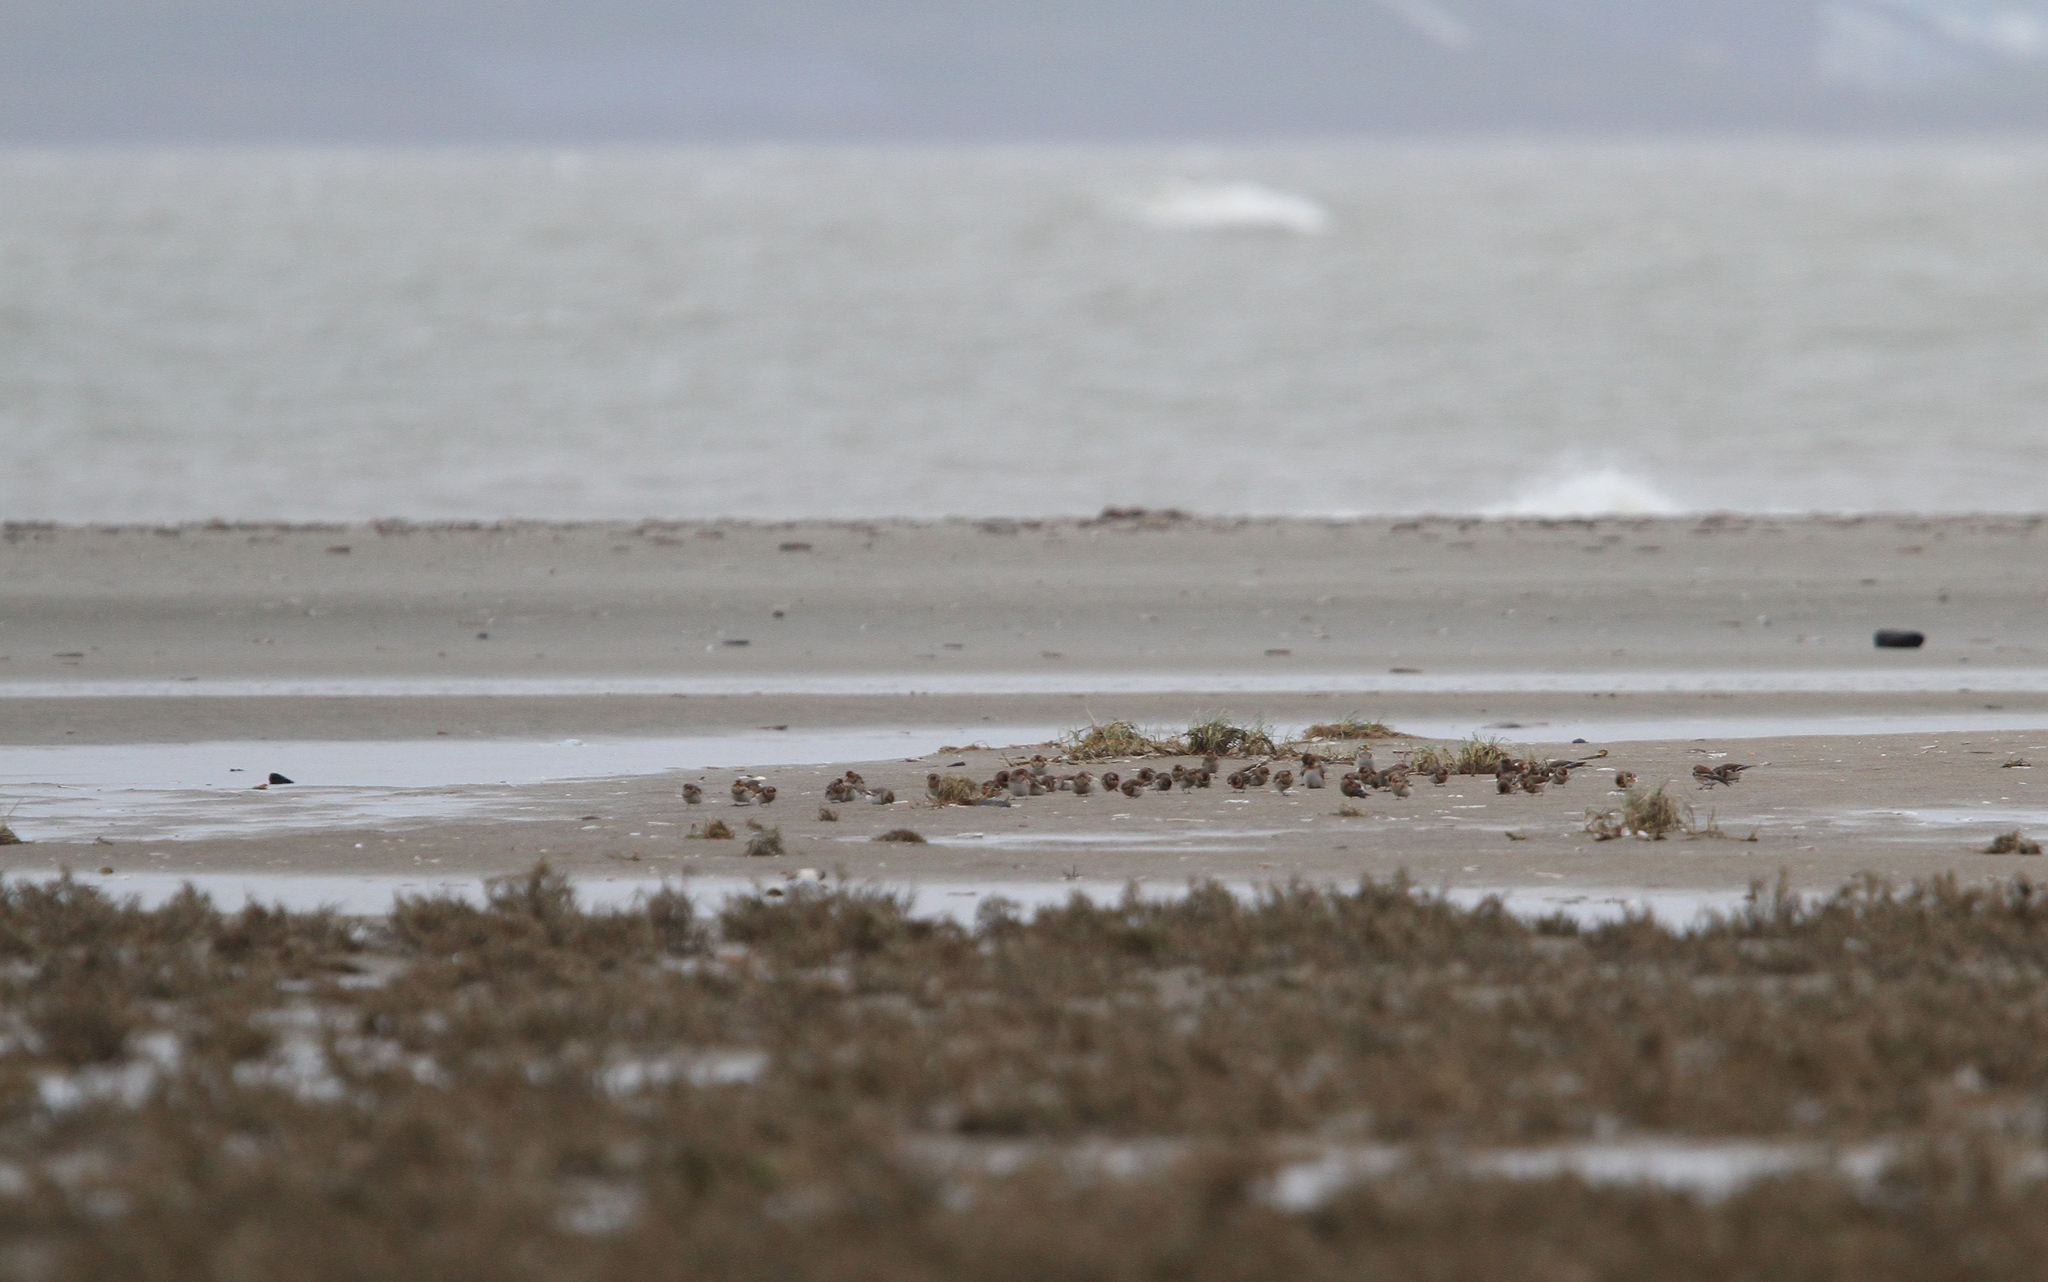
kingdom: Animalia
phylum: Chordata
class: Aves
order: Passeriformes
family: Calcariidae
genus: Plectrophenax
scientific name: Plectrophenax nivalis
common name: Snow bunting
